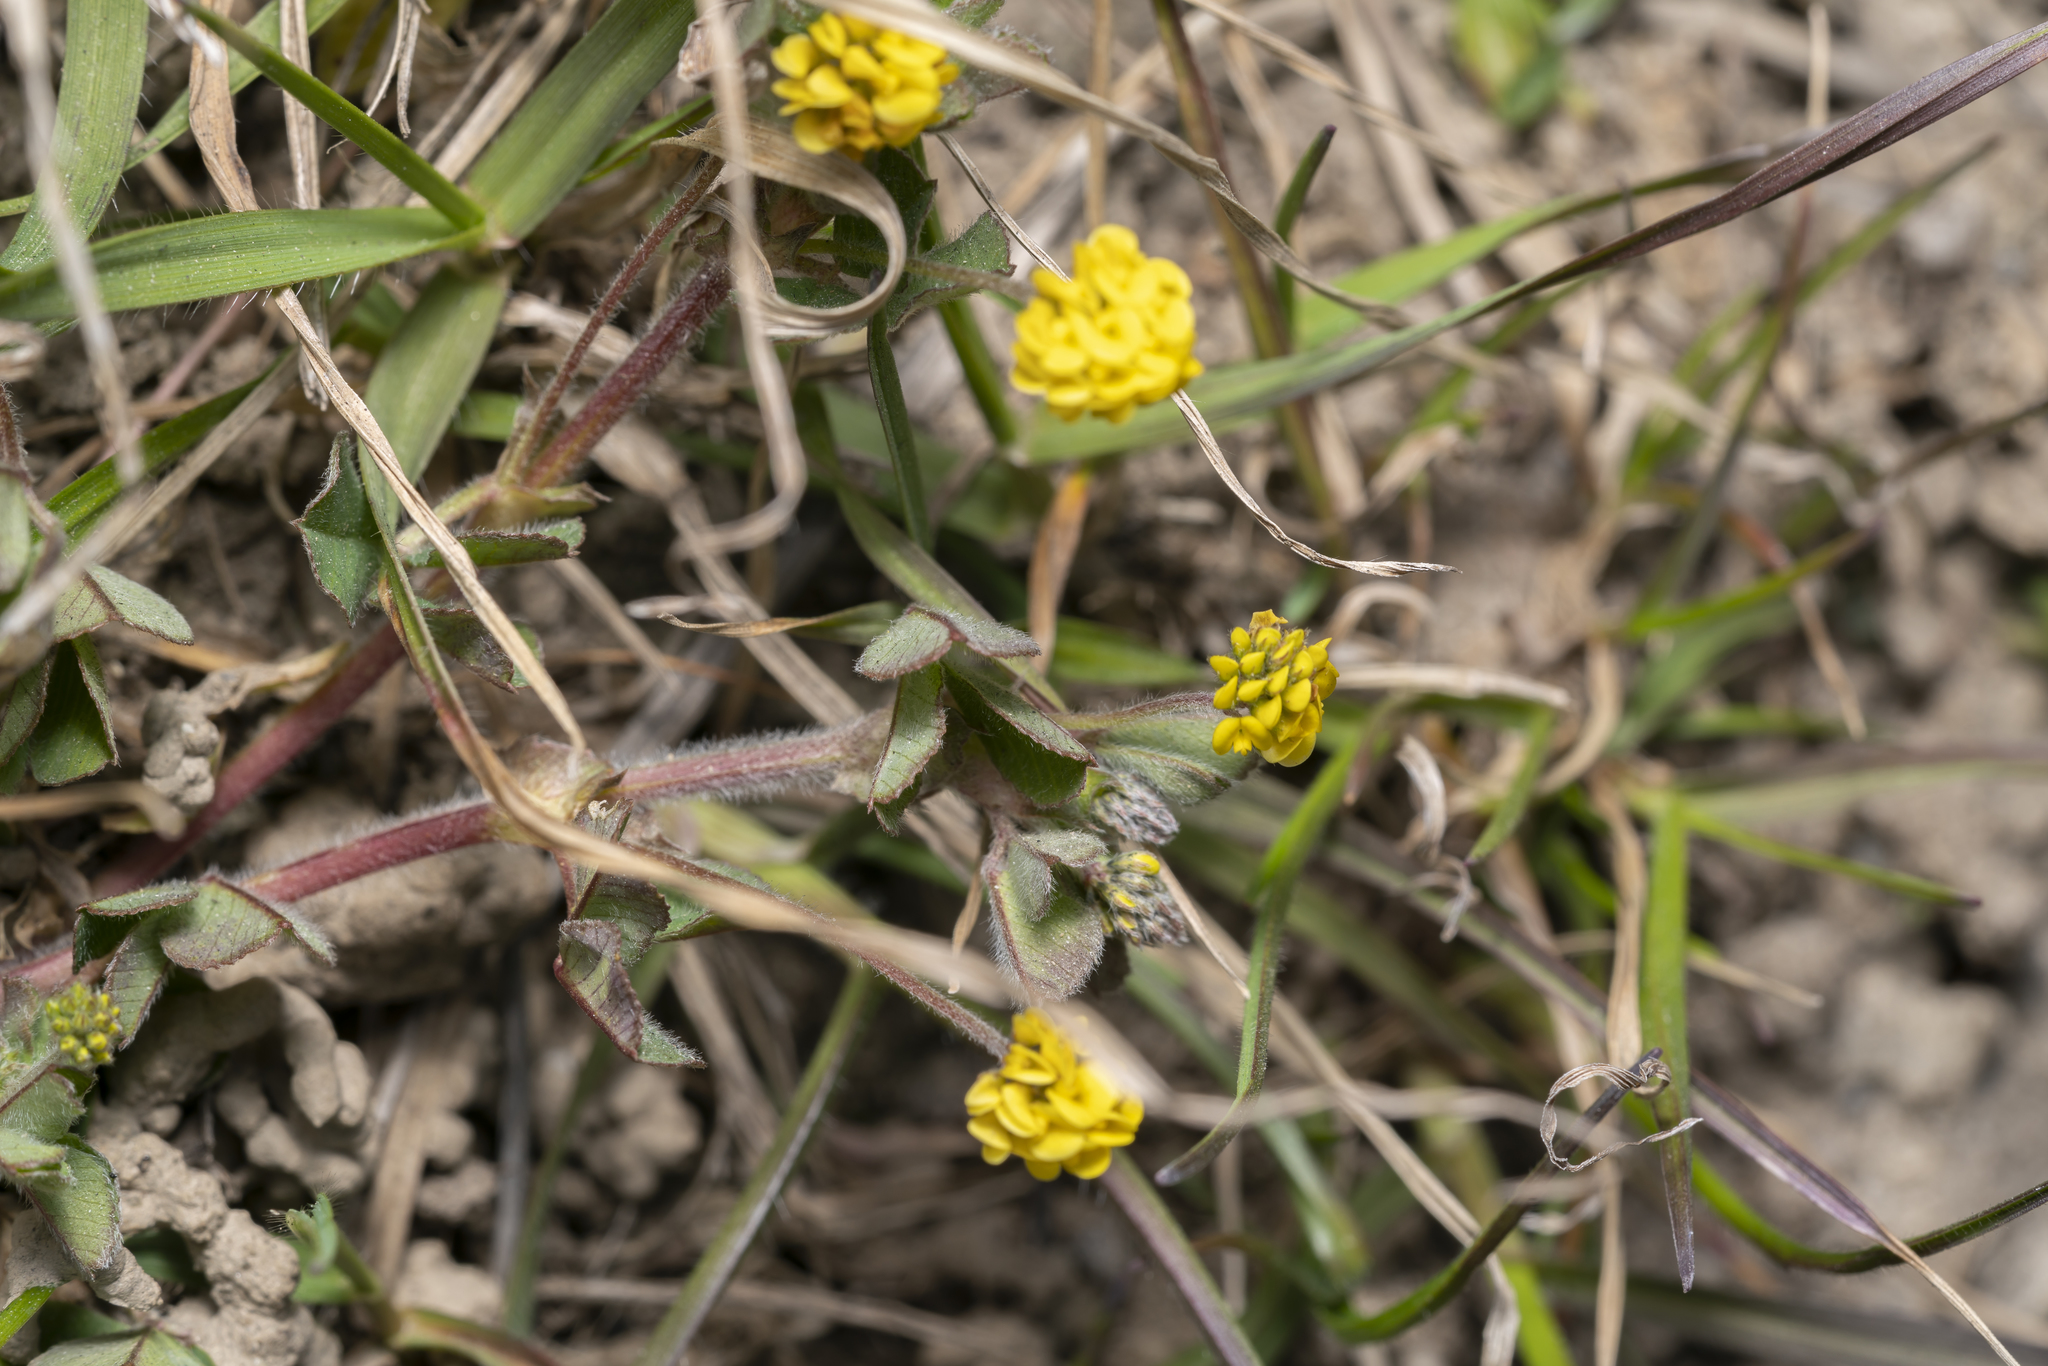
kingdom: Plantae
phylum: Tracheophyta
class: Magnoliopsida
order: Fabales
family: Fabaceae
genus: Medicago
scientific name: Medicago lupulina
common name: Black medick
